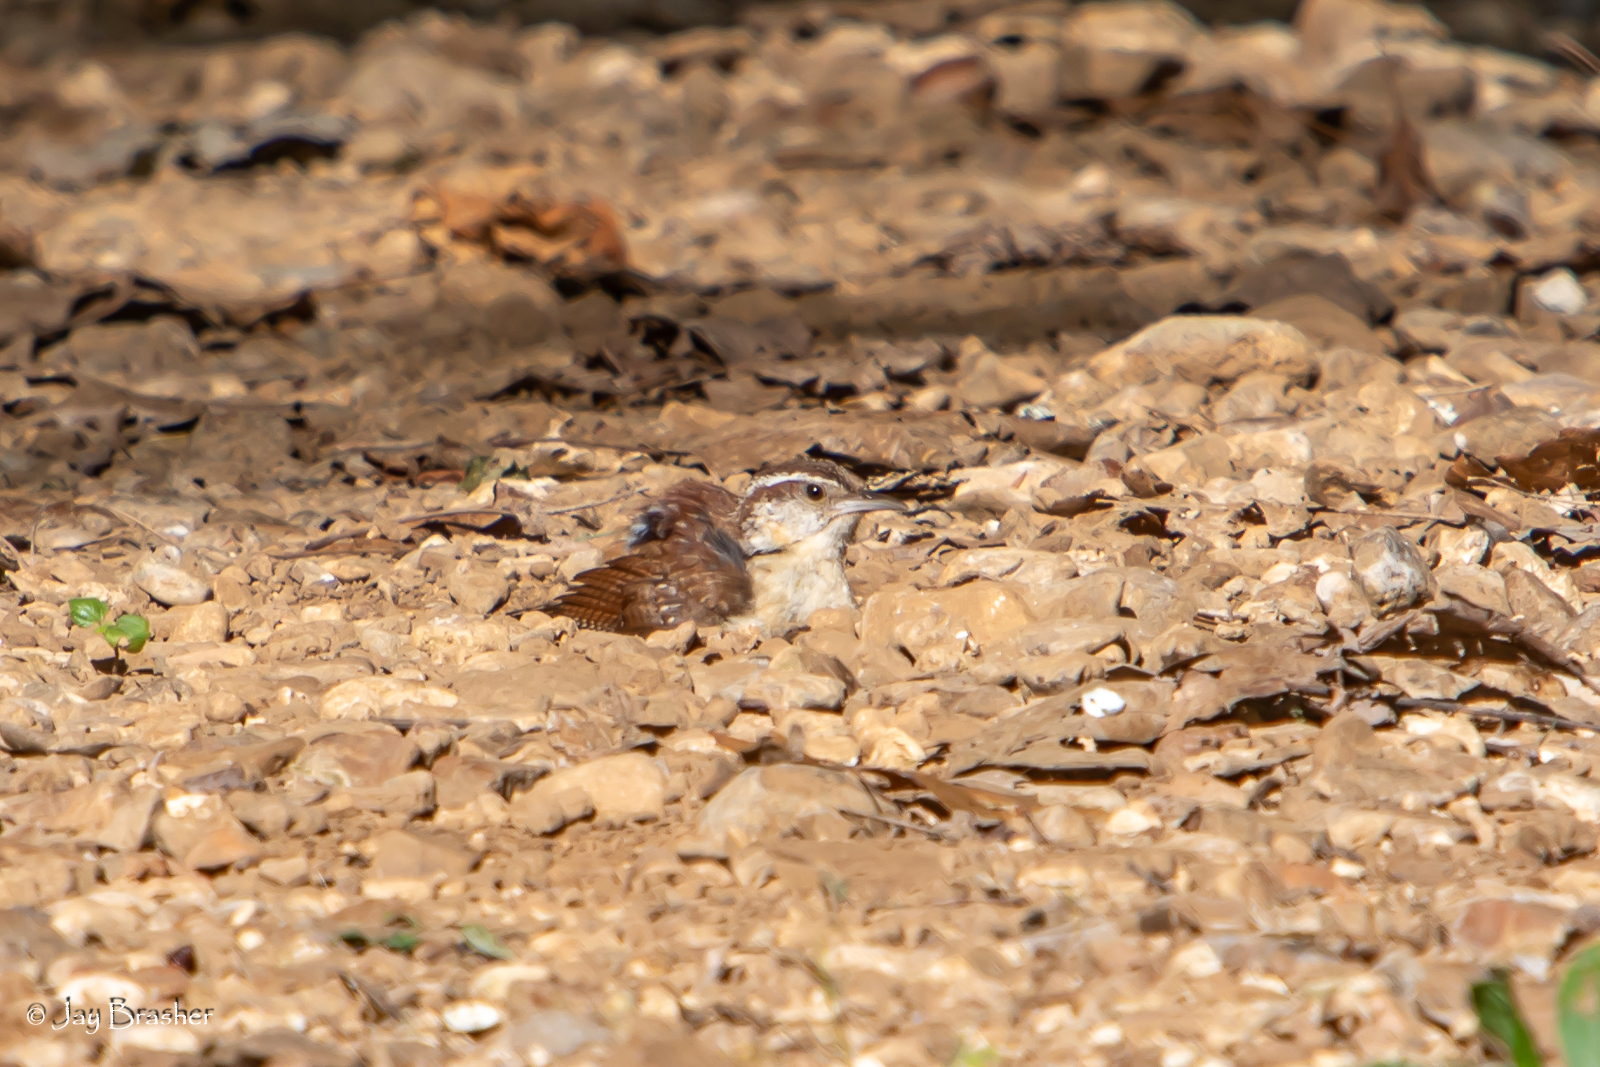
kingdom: Animalia
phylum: Chordata
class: Aves
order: Passeriformes
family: Troglodytidae
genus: Thryothorus
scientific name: Thryothorus ludovicianus
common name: Carolina wren
